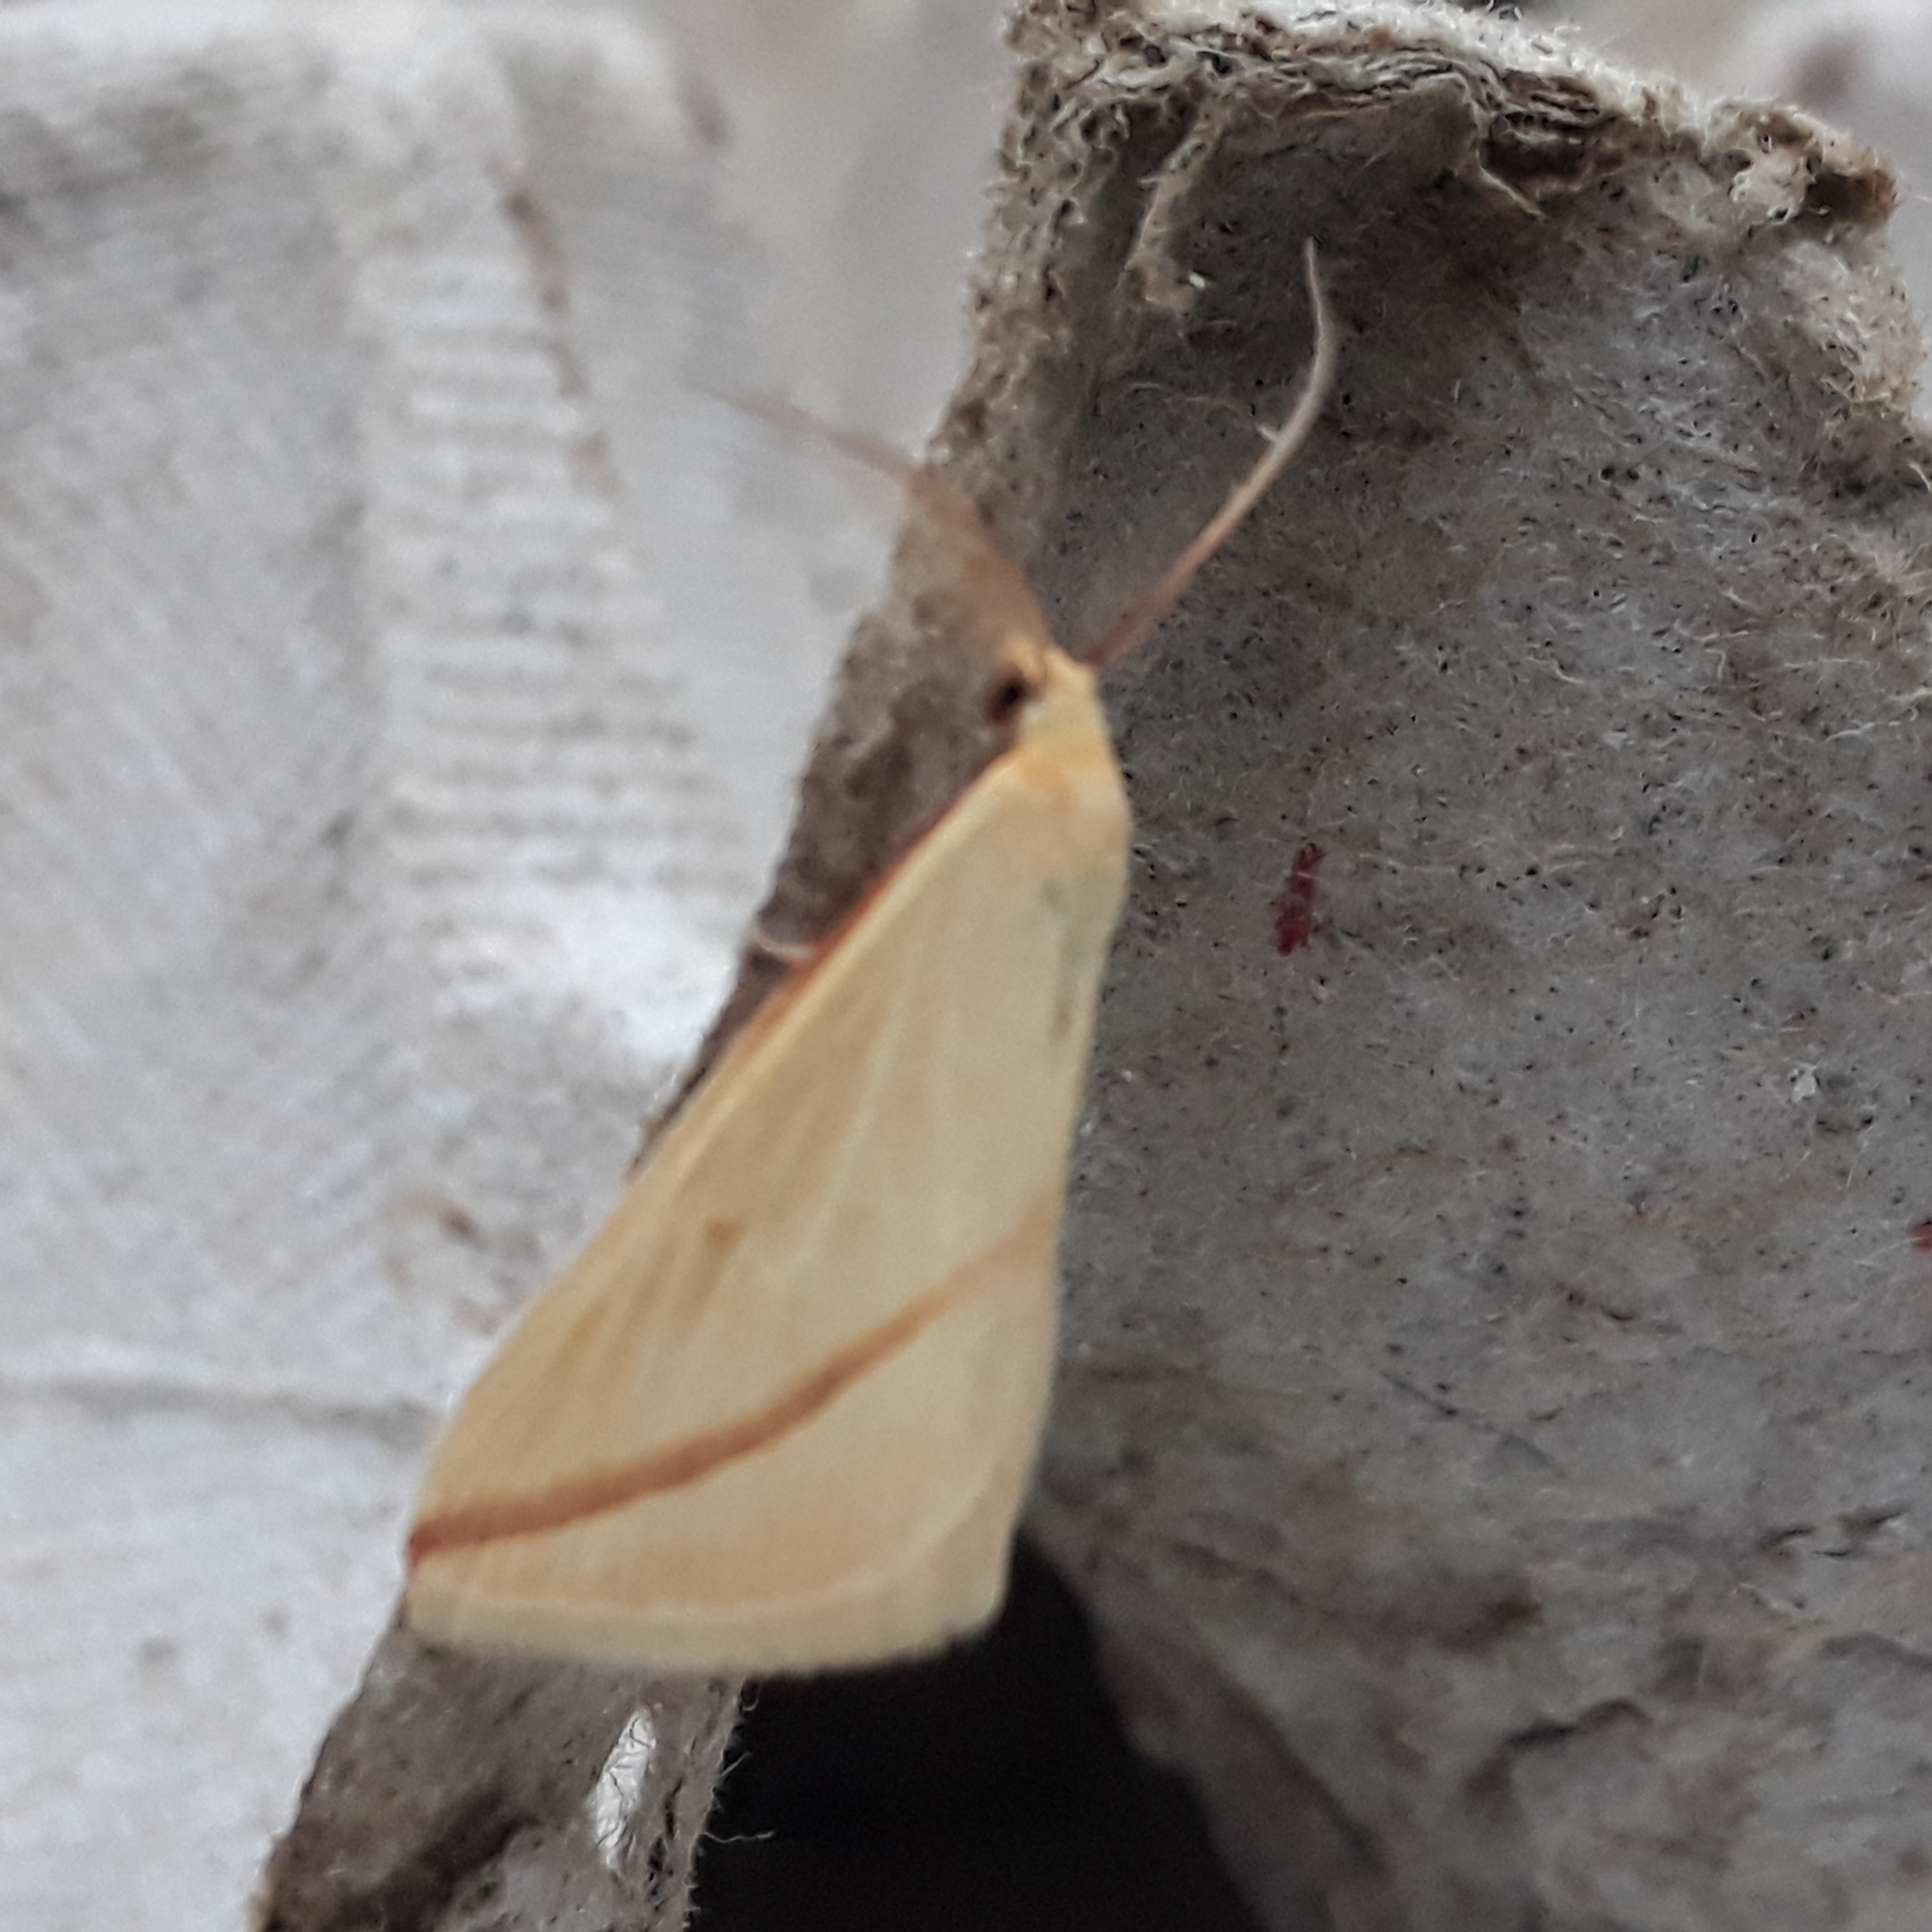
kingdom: Animalia
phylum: Arthropoda
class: Insecta
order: Lepidoptera
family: Geometridae
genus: Rhodometra
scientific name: Rhodometra sacraria
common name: Vestal
